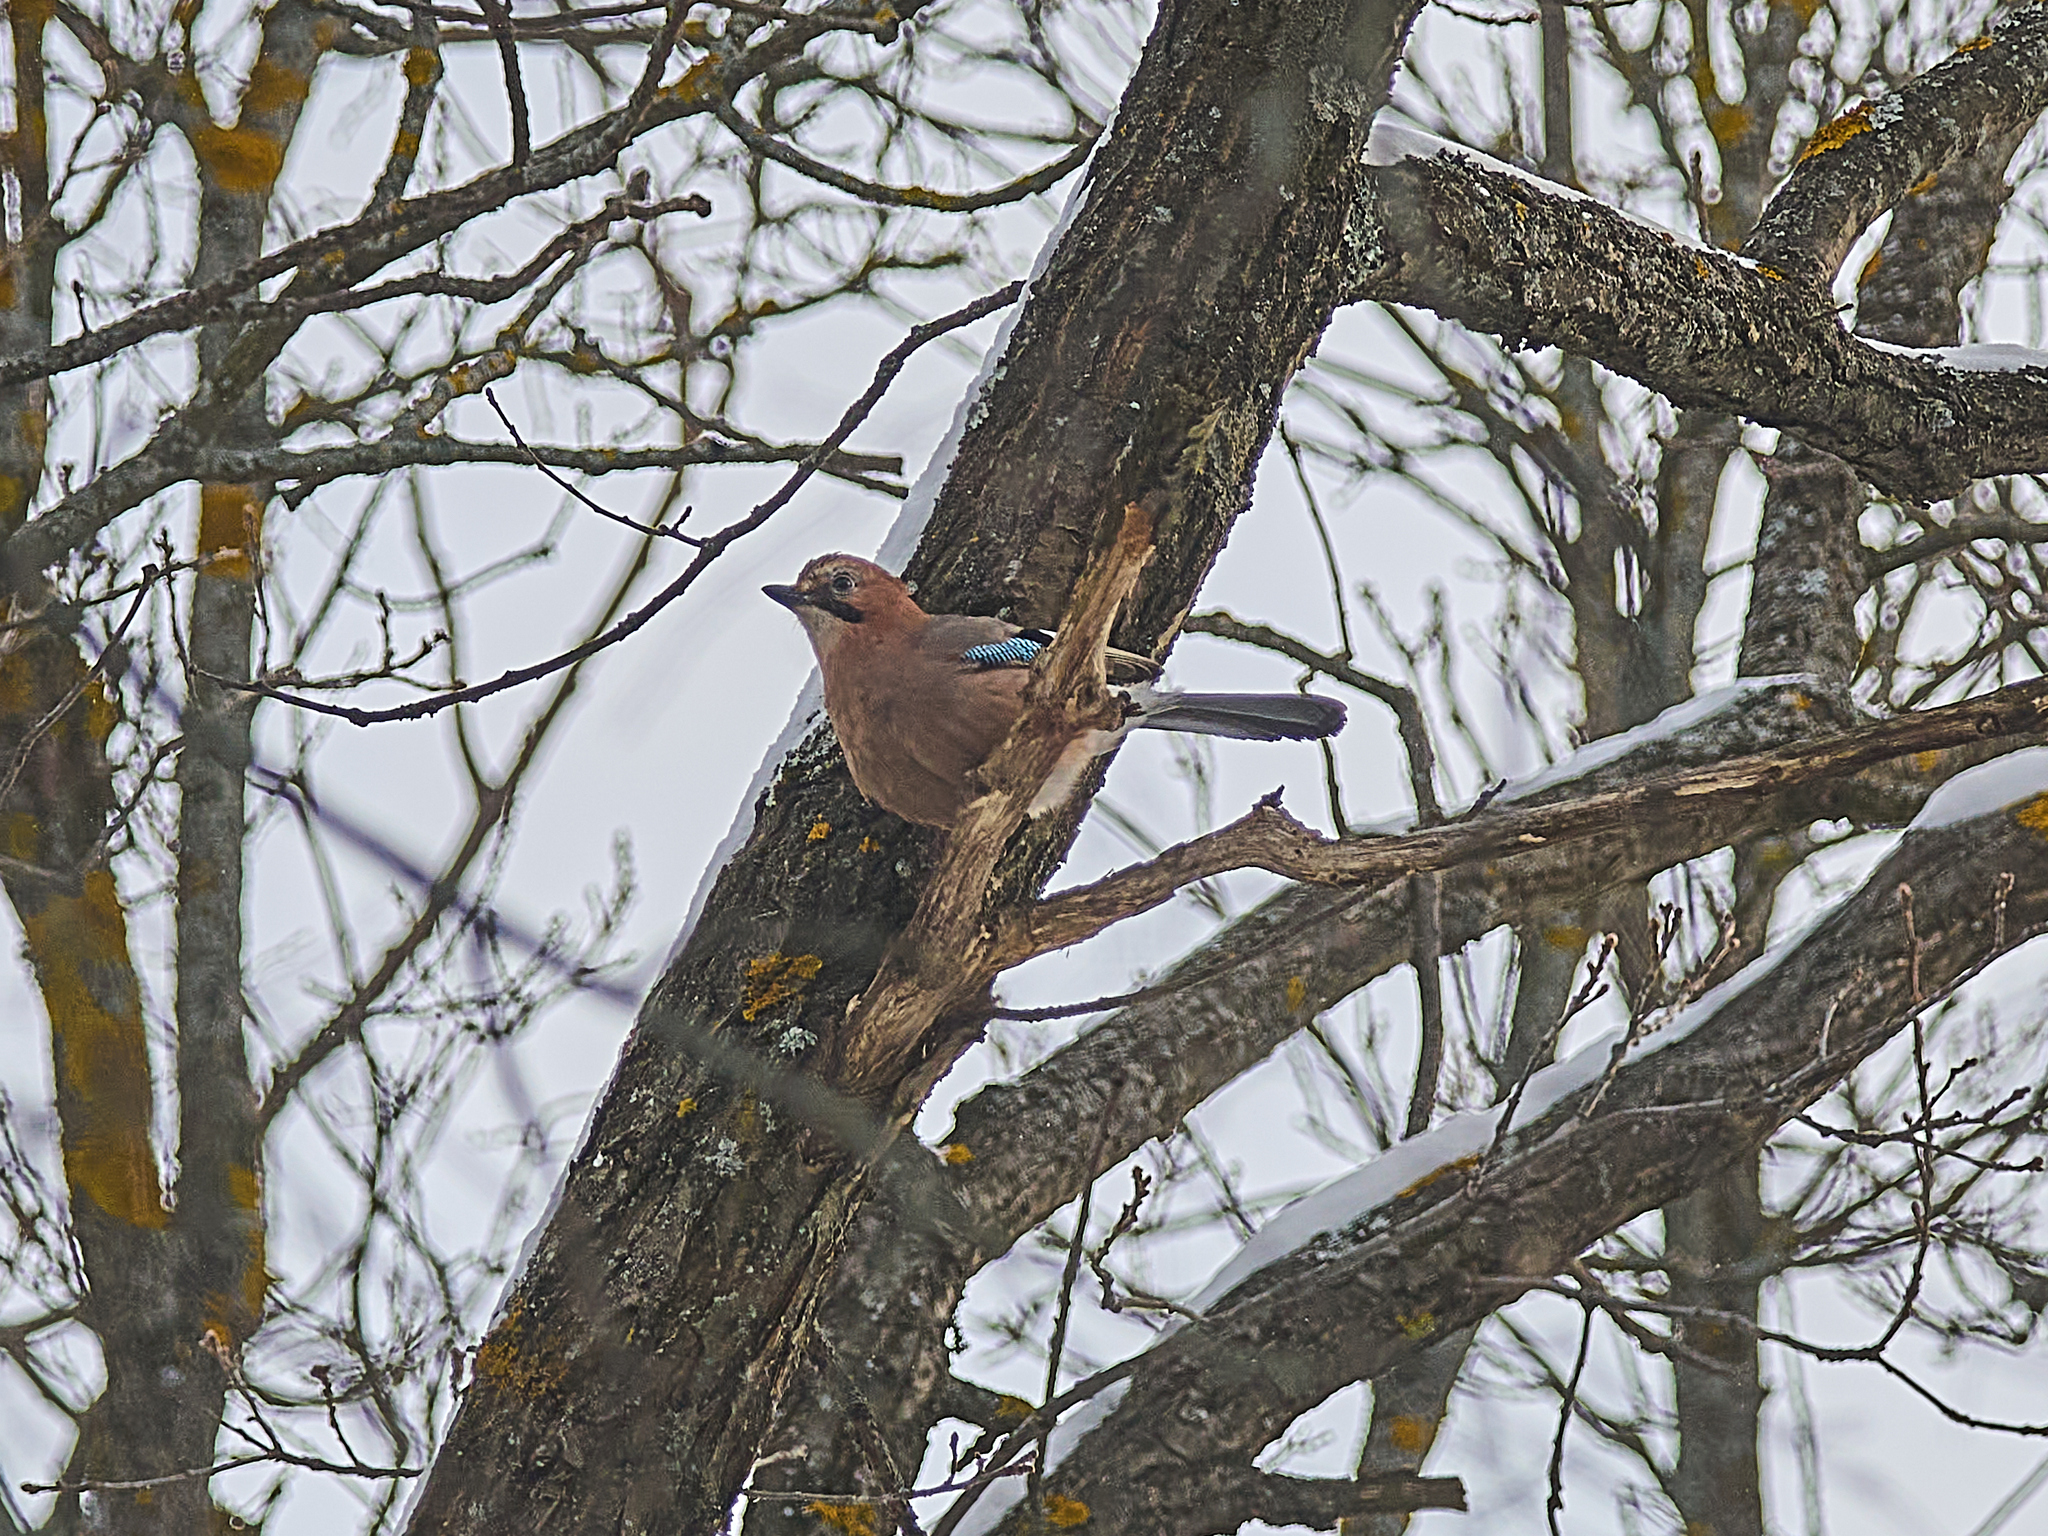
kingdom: Animalia
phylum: Chordata
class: Aves
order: Passeriformes
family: Corvidae
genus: Garrulus
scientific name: Garrulus glandarius
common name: Eurasian jay
